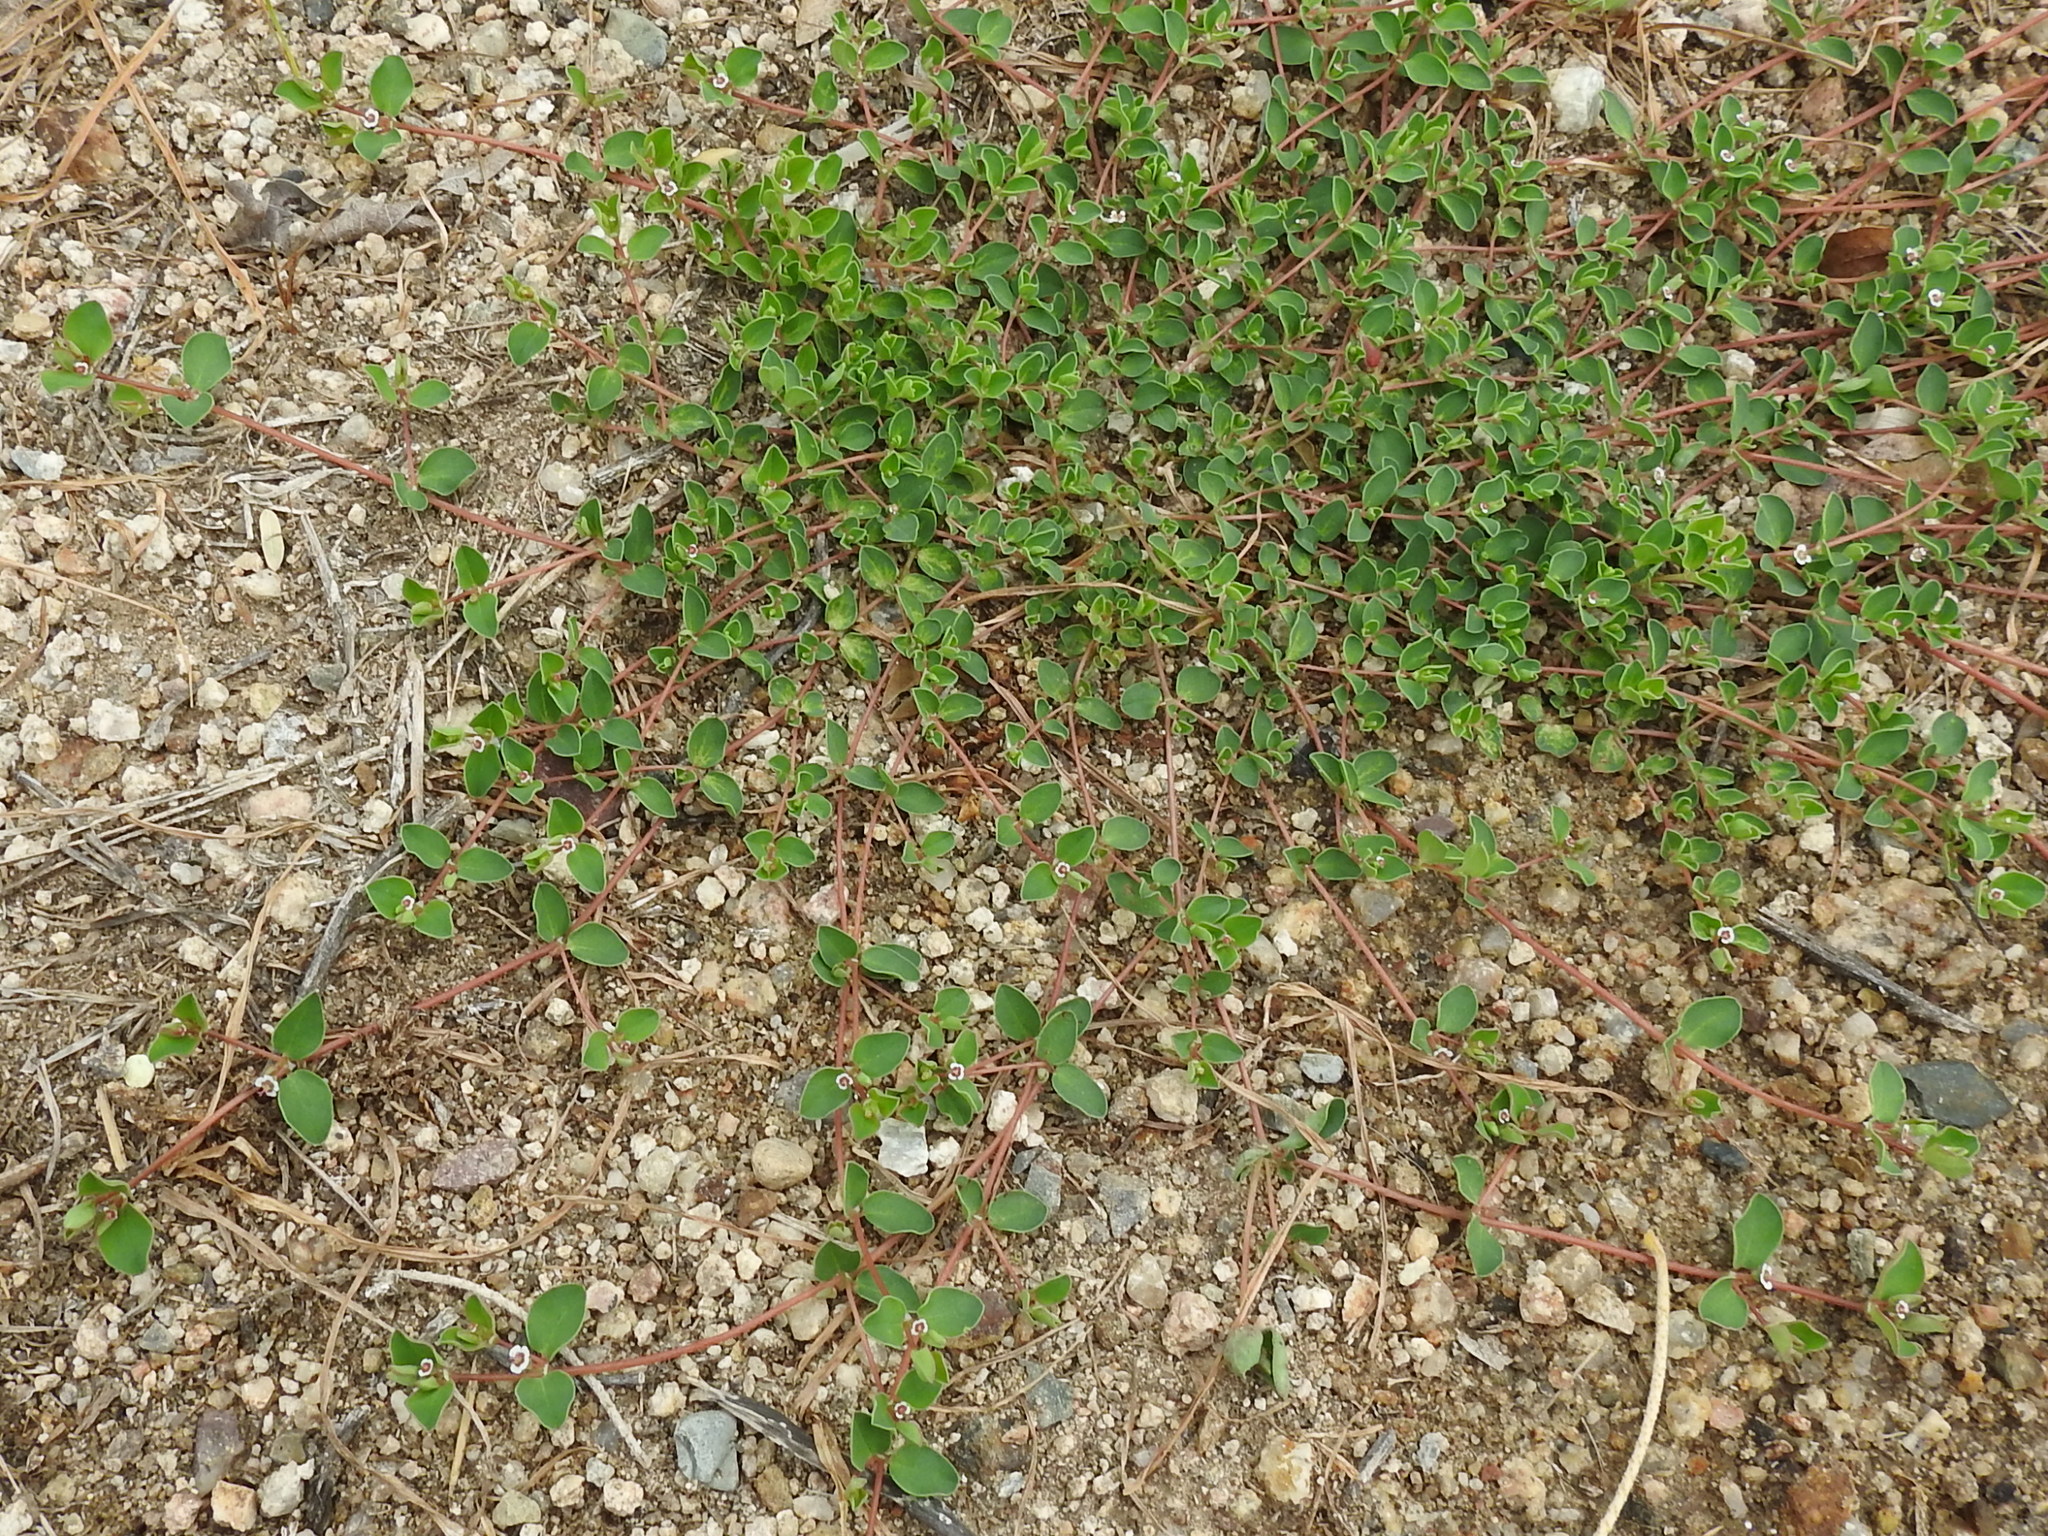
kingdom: Plantae
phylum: Tracheophyta
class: Magnoliopsida
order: Malpighiales
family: Euphorbiaceae
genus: Euphorbia
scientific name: Euphorbia albomarginata
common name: Whitemargin sandmat
